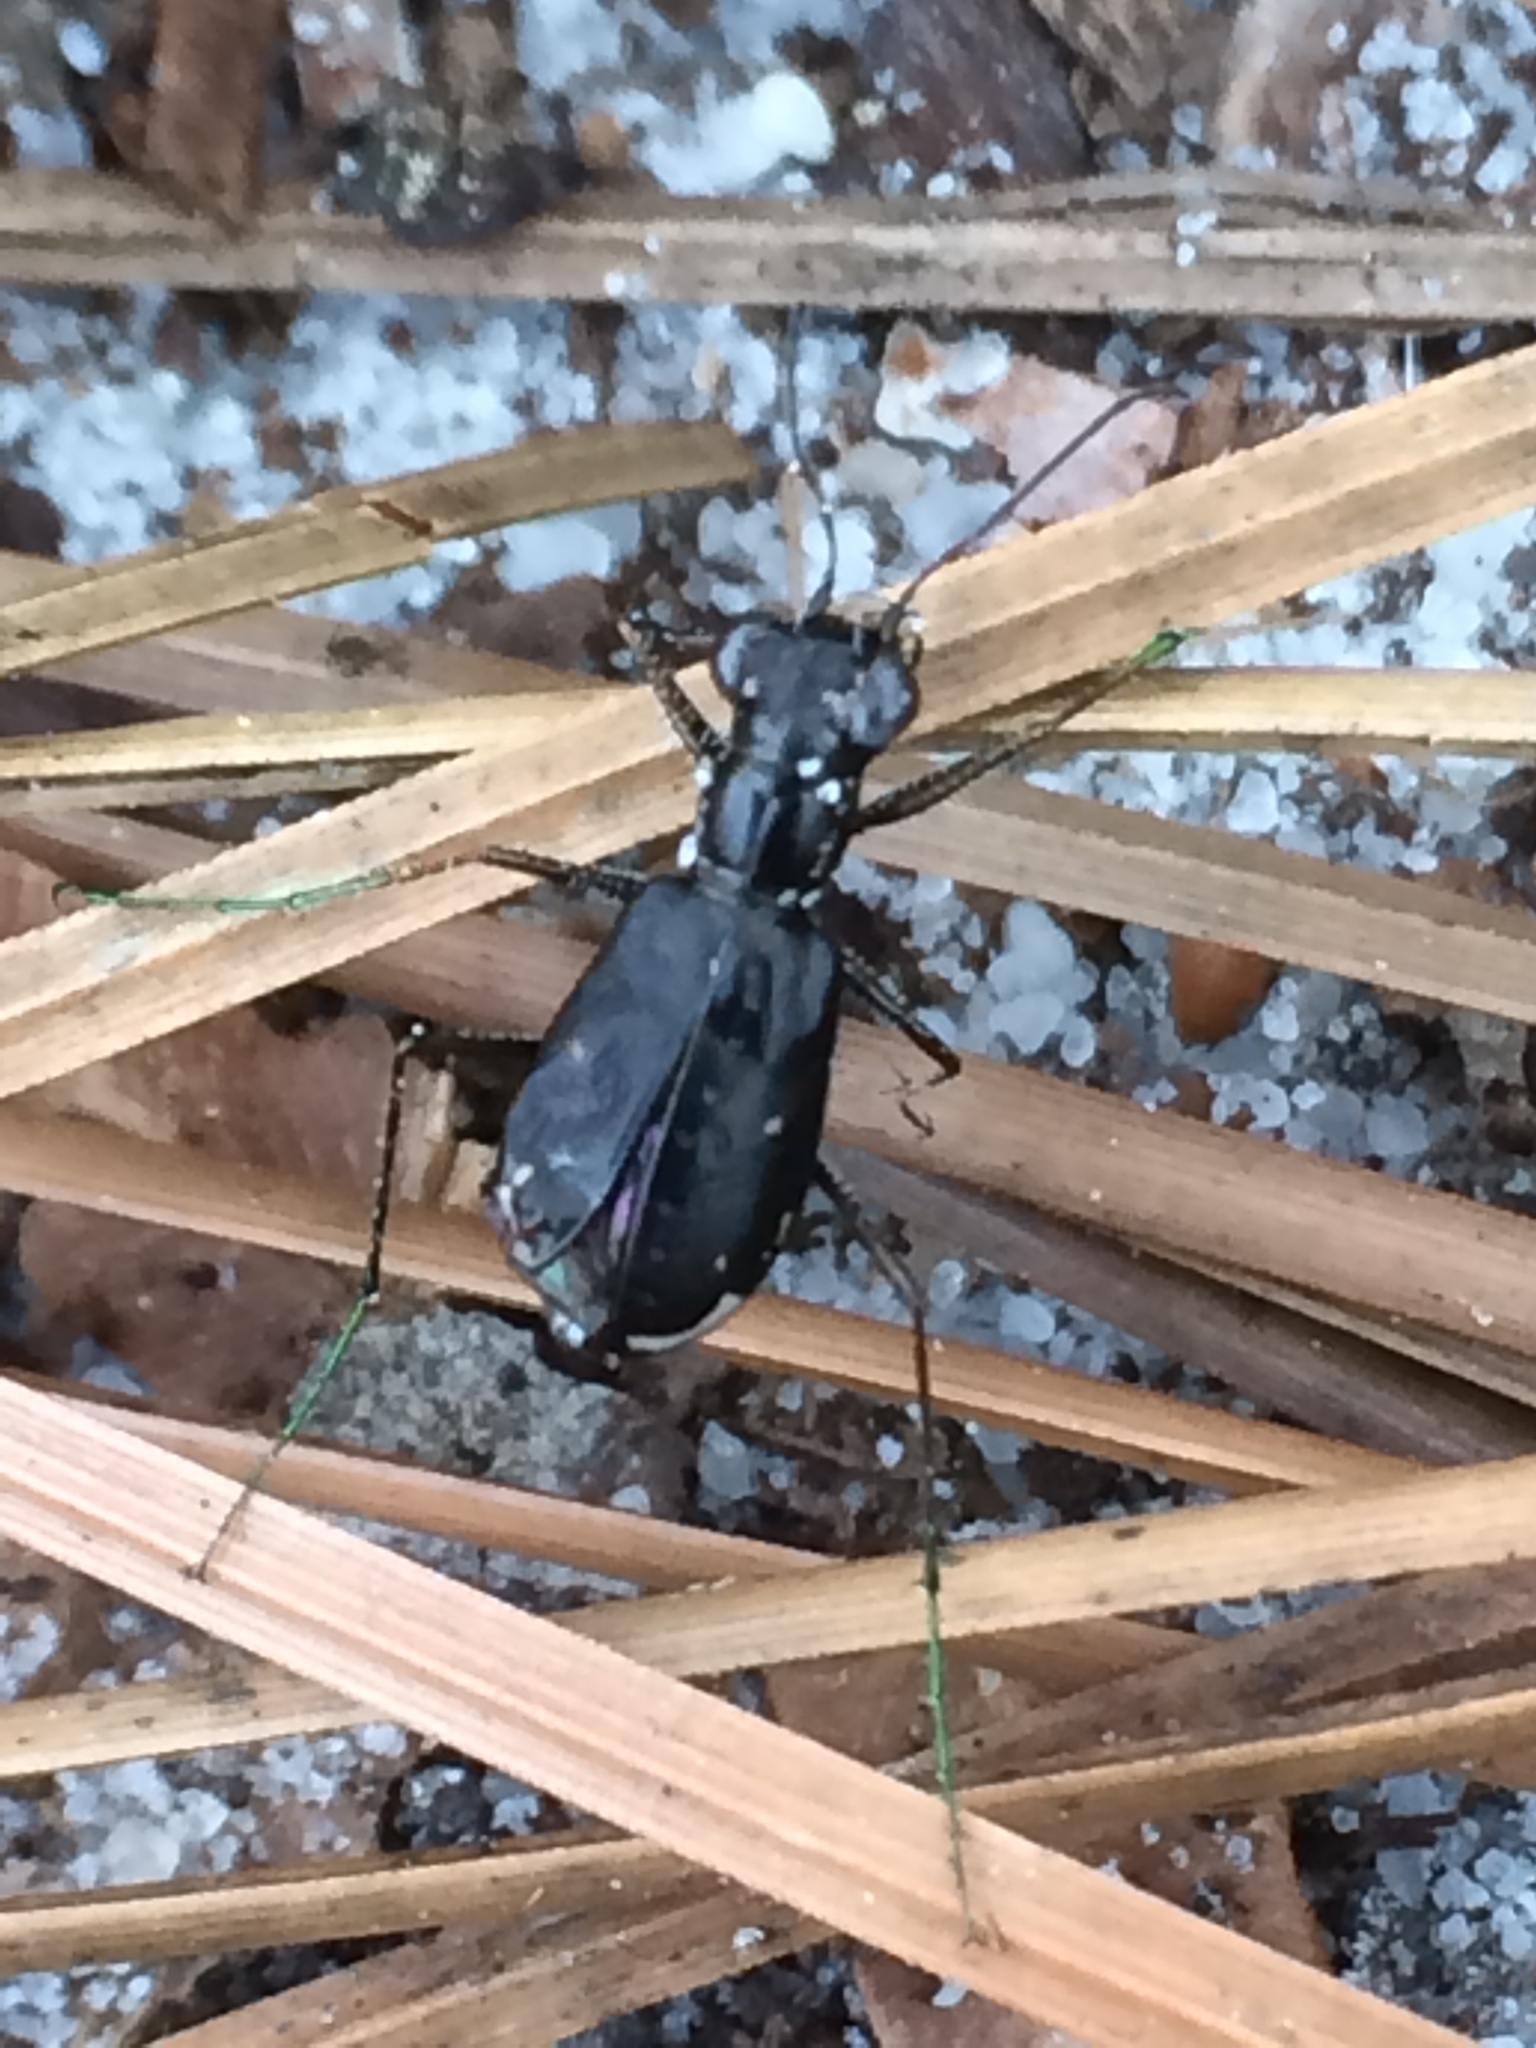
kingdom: Animalia
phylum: Arthropoda
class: Insecta
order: Coleoptera
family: Carabidae
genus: Cicindela
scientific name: Cicindela abdominalis
